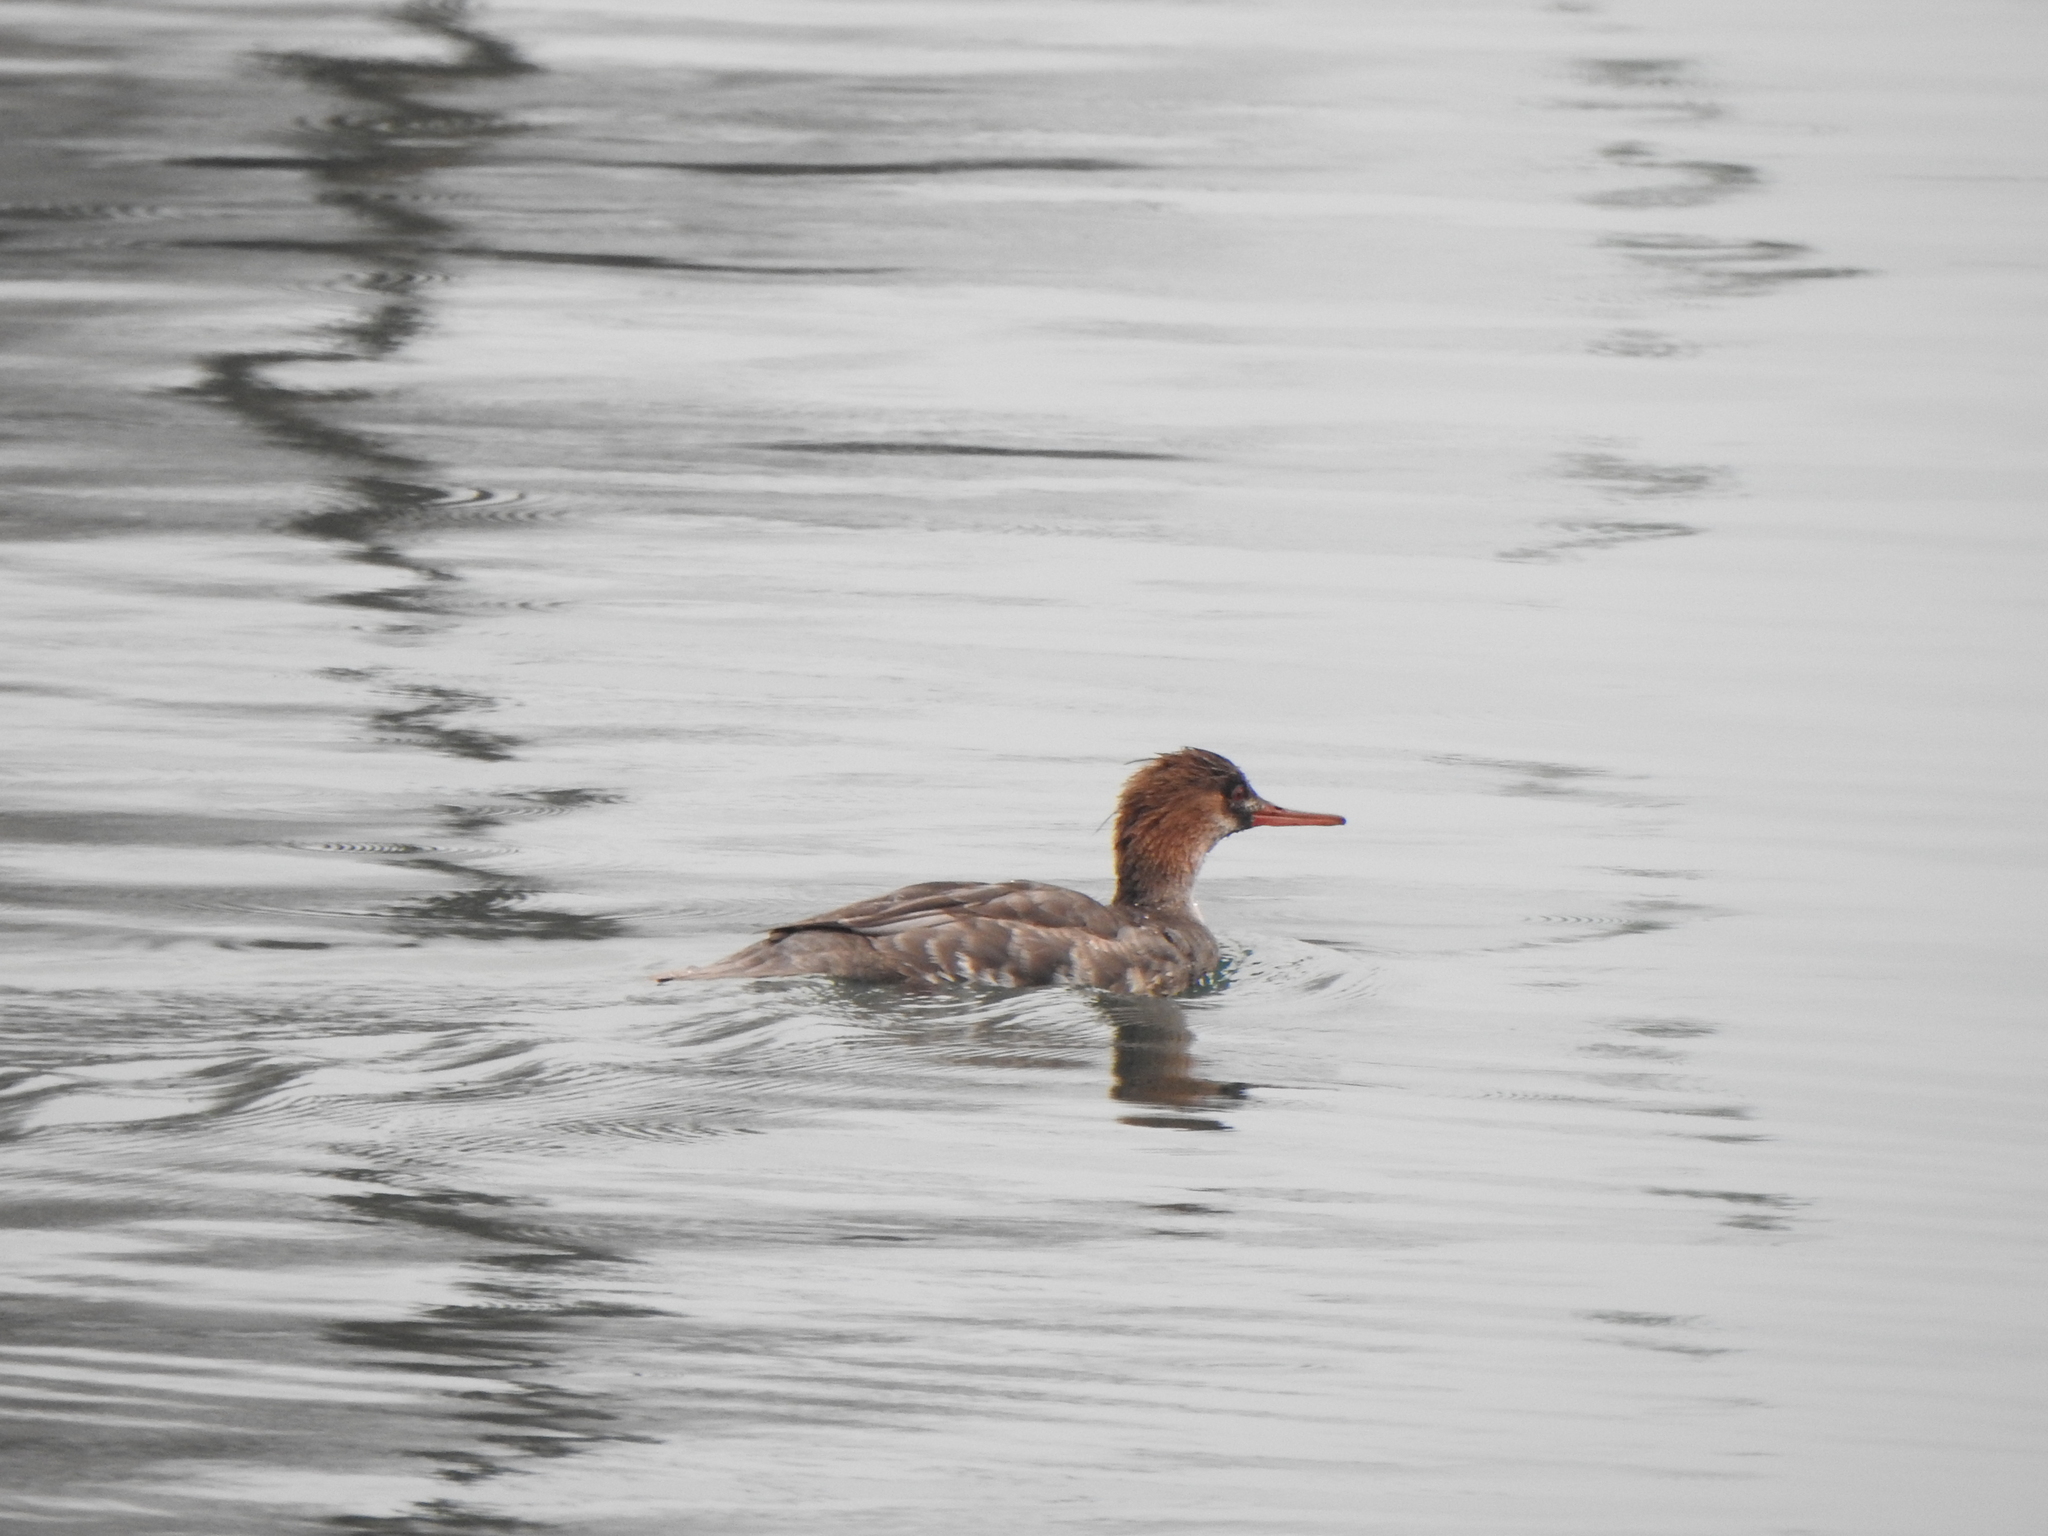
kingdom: Animalia
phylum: Chordata
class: Aves
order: Anseriformes
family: Anatidae
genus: Mergus
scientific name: Mergus serrator
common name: Red-breasted merganser
